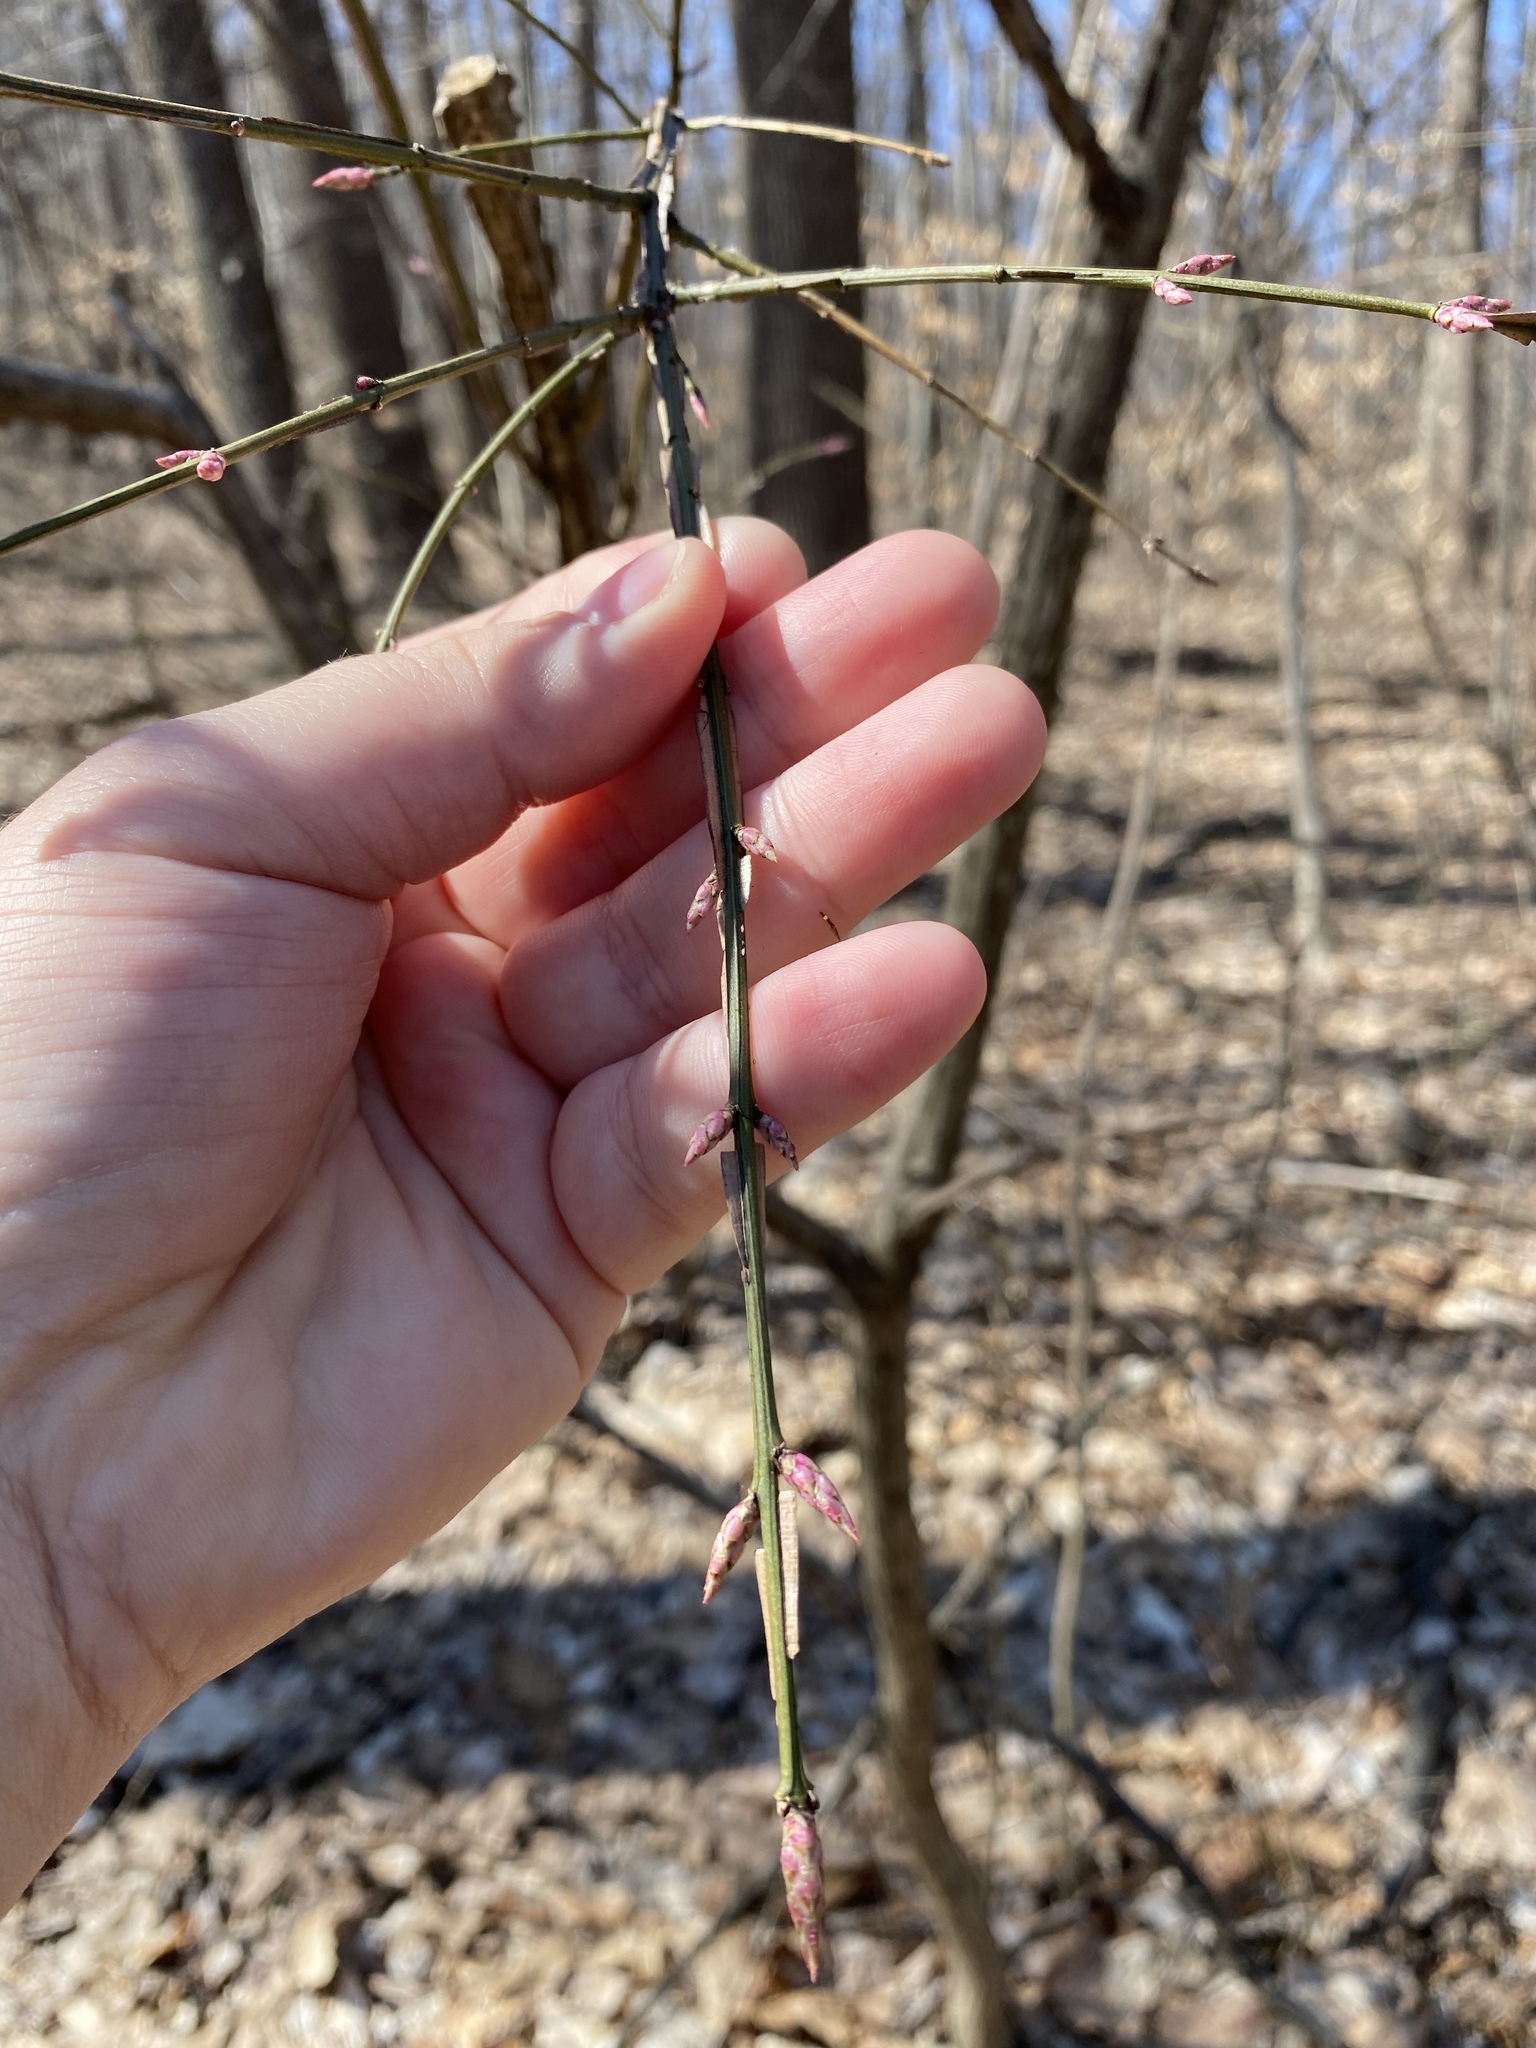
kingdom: Plantae
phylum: Tracheophyta
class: Magnoliopsida
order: Celastrales
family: Celastraceae
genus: Euonymus
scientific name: Euonymus alatus
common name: Winged euonymus
